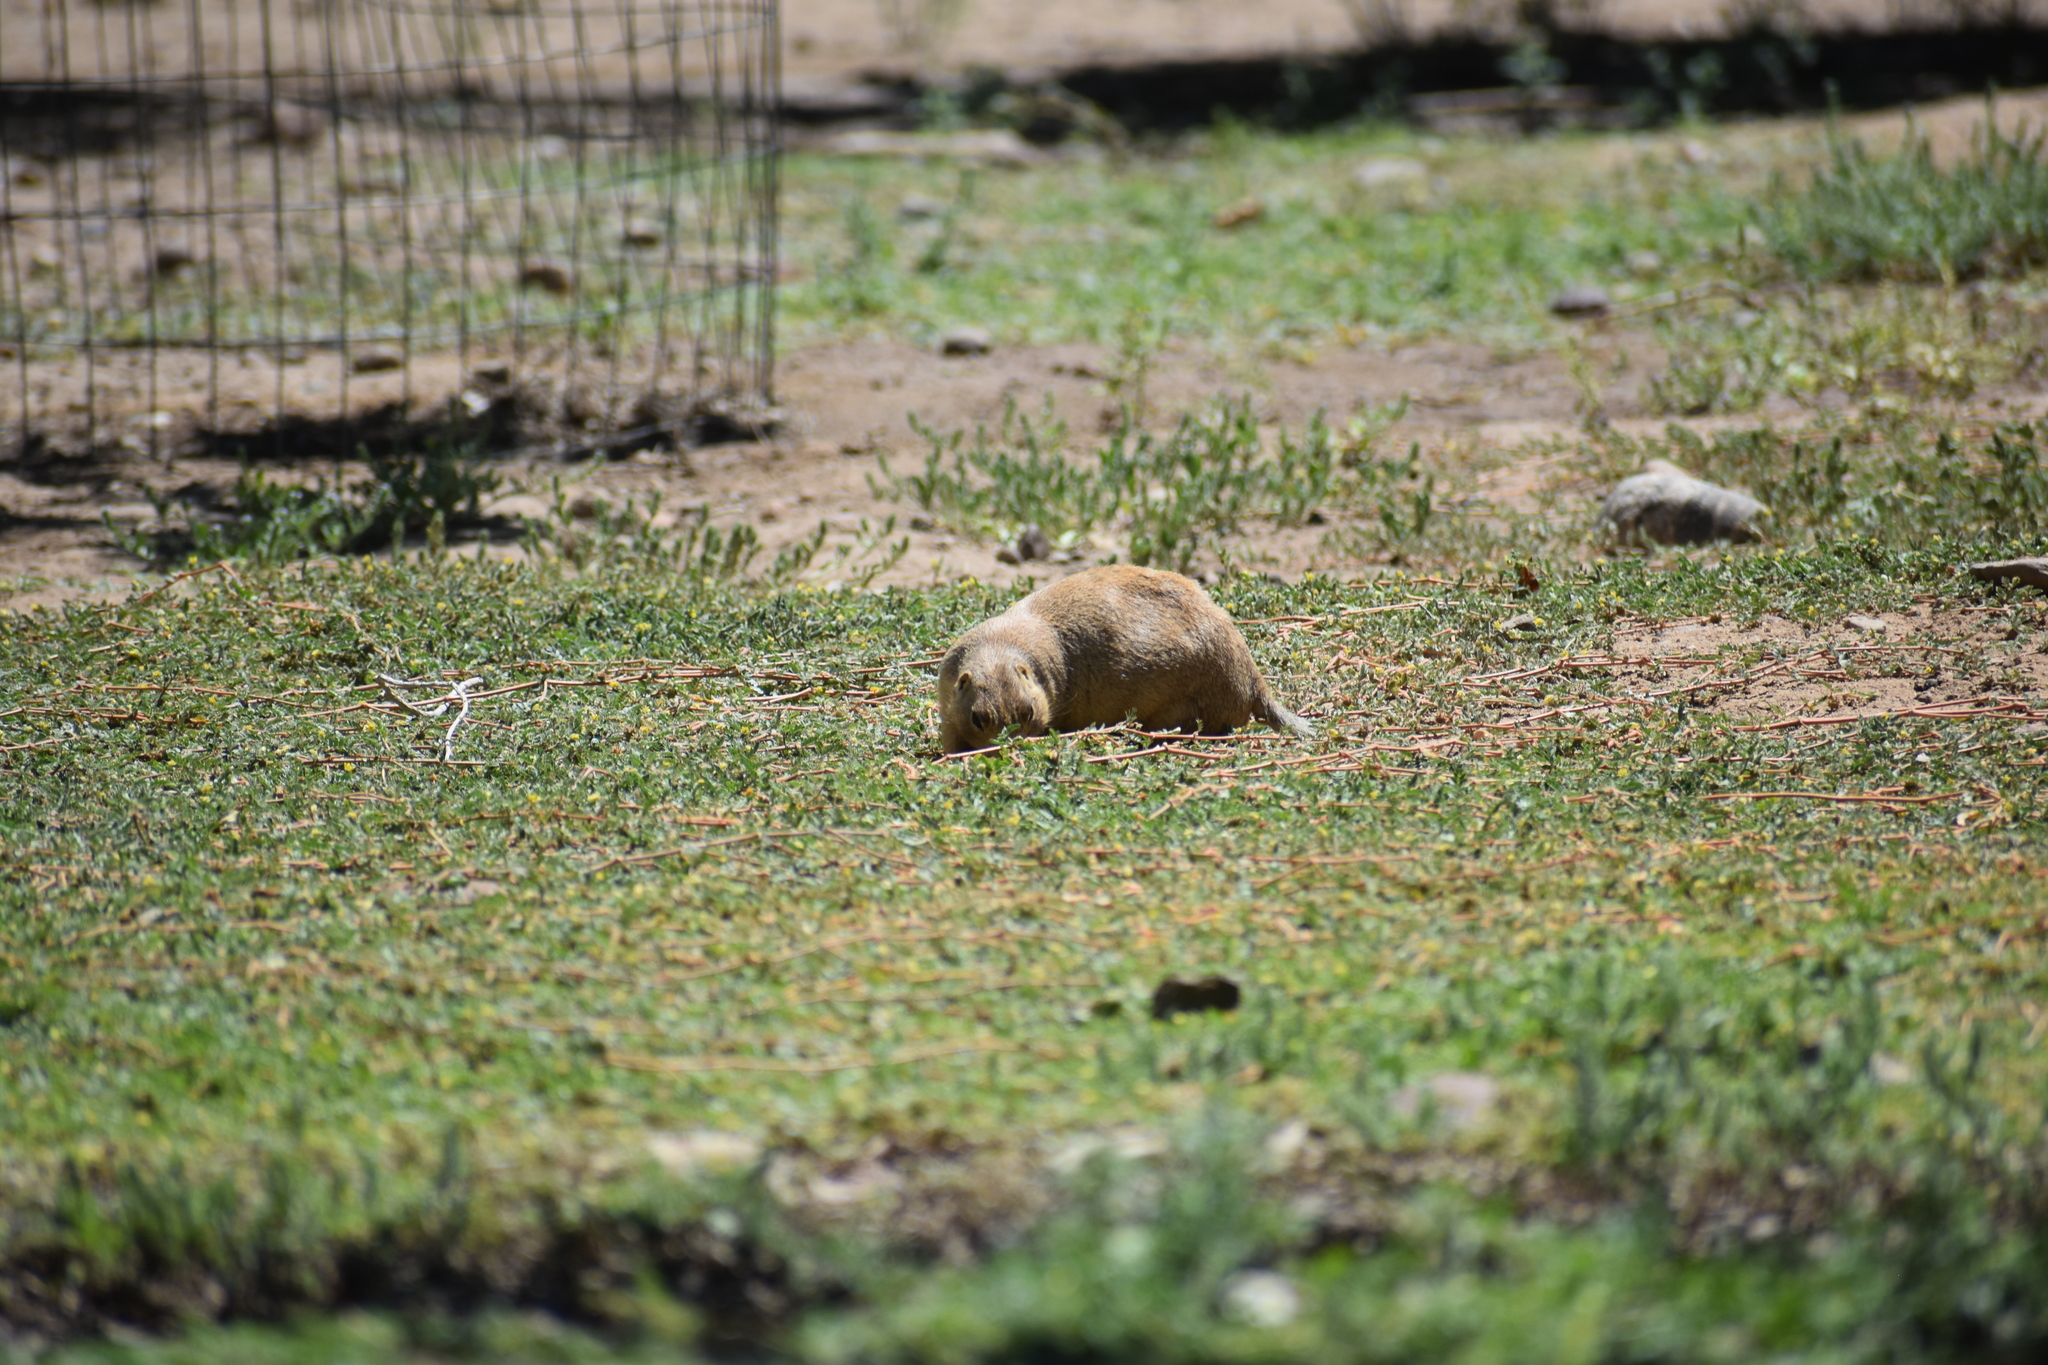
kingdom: Animalia
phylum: Chordata
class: Mammalia
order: Rodentia
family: Sciuridae
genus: Cynomys
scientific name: Cynomys gunnisoni
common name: Gunnison's prairie dog
